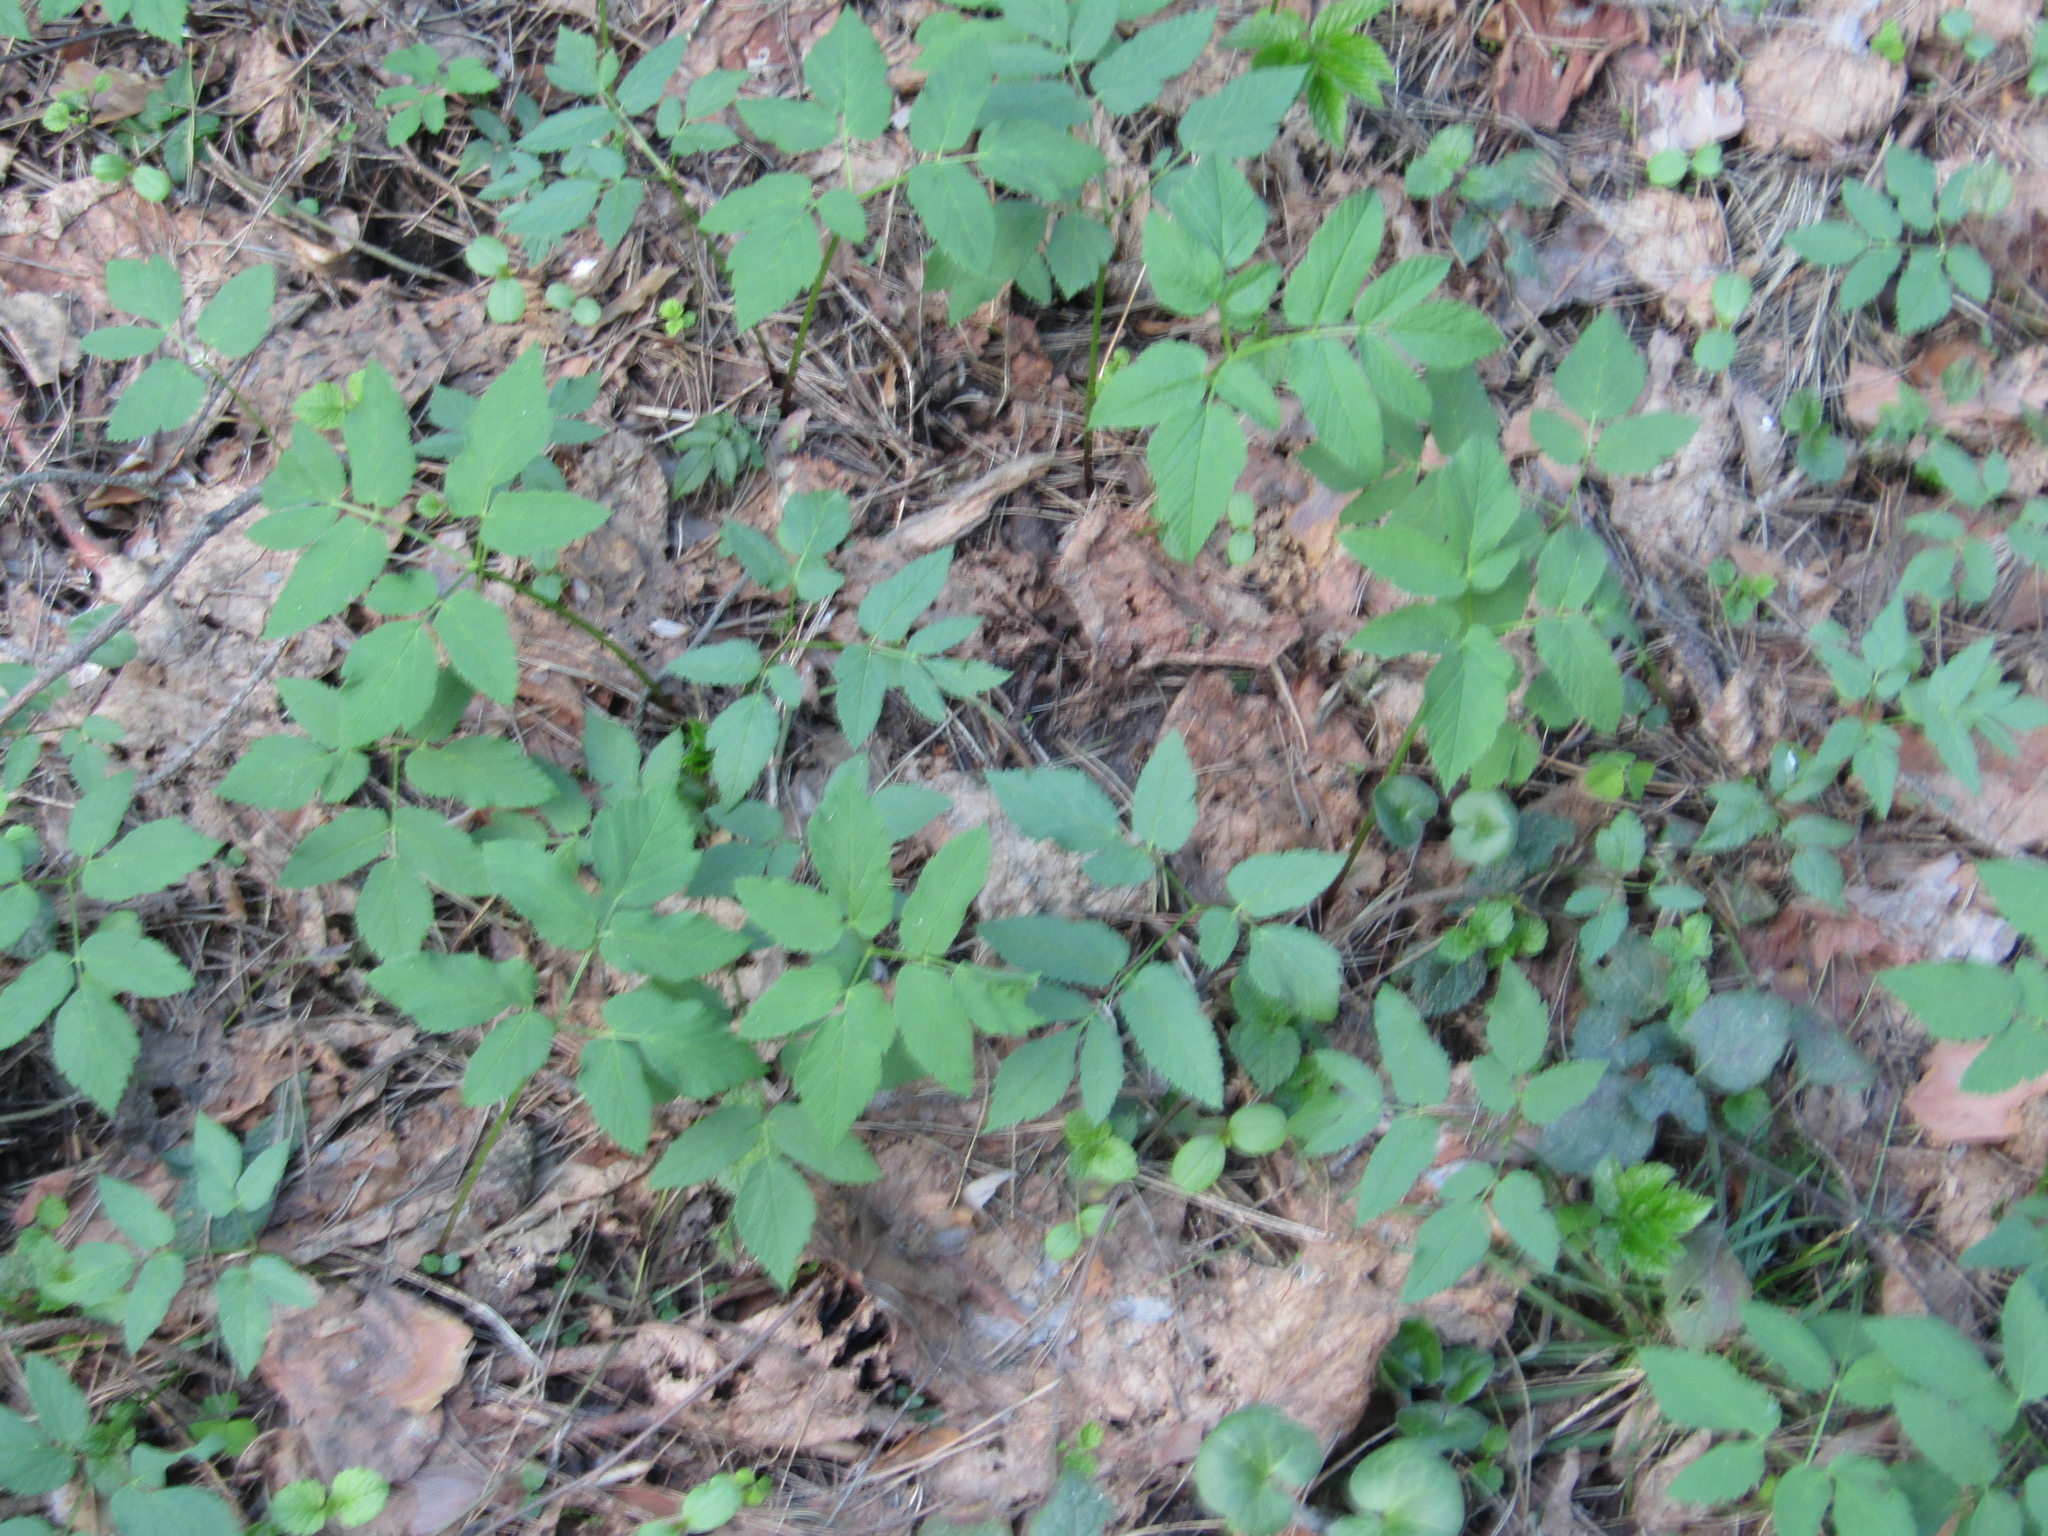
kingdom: Plantae
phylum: Tracheophyta
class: Magnoliopsida
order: Apiales
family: Apiaceae
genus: Aegopodium
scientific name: Aegopodium podagraria
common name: Ground-elder
